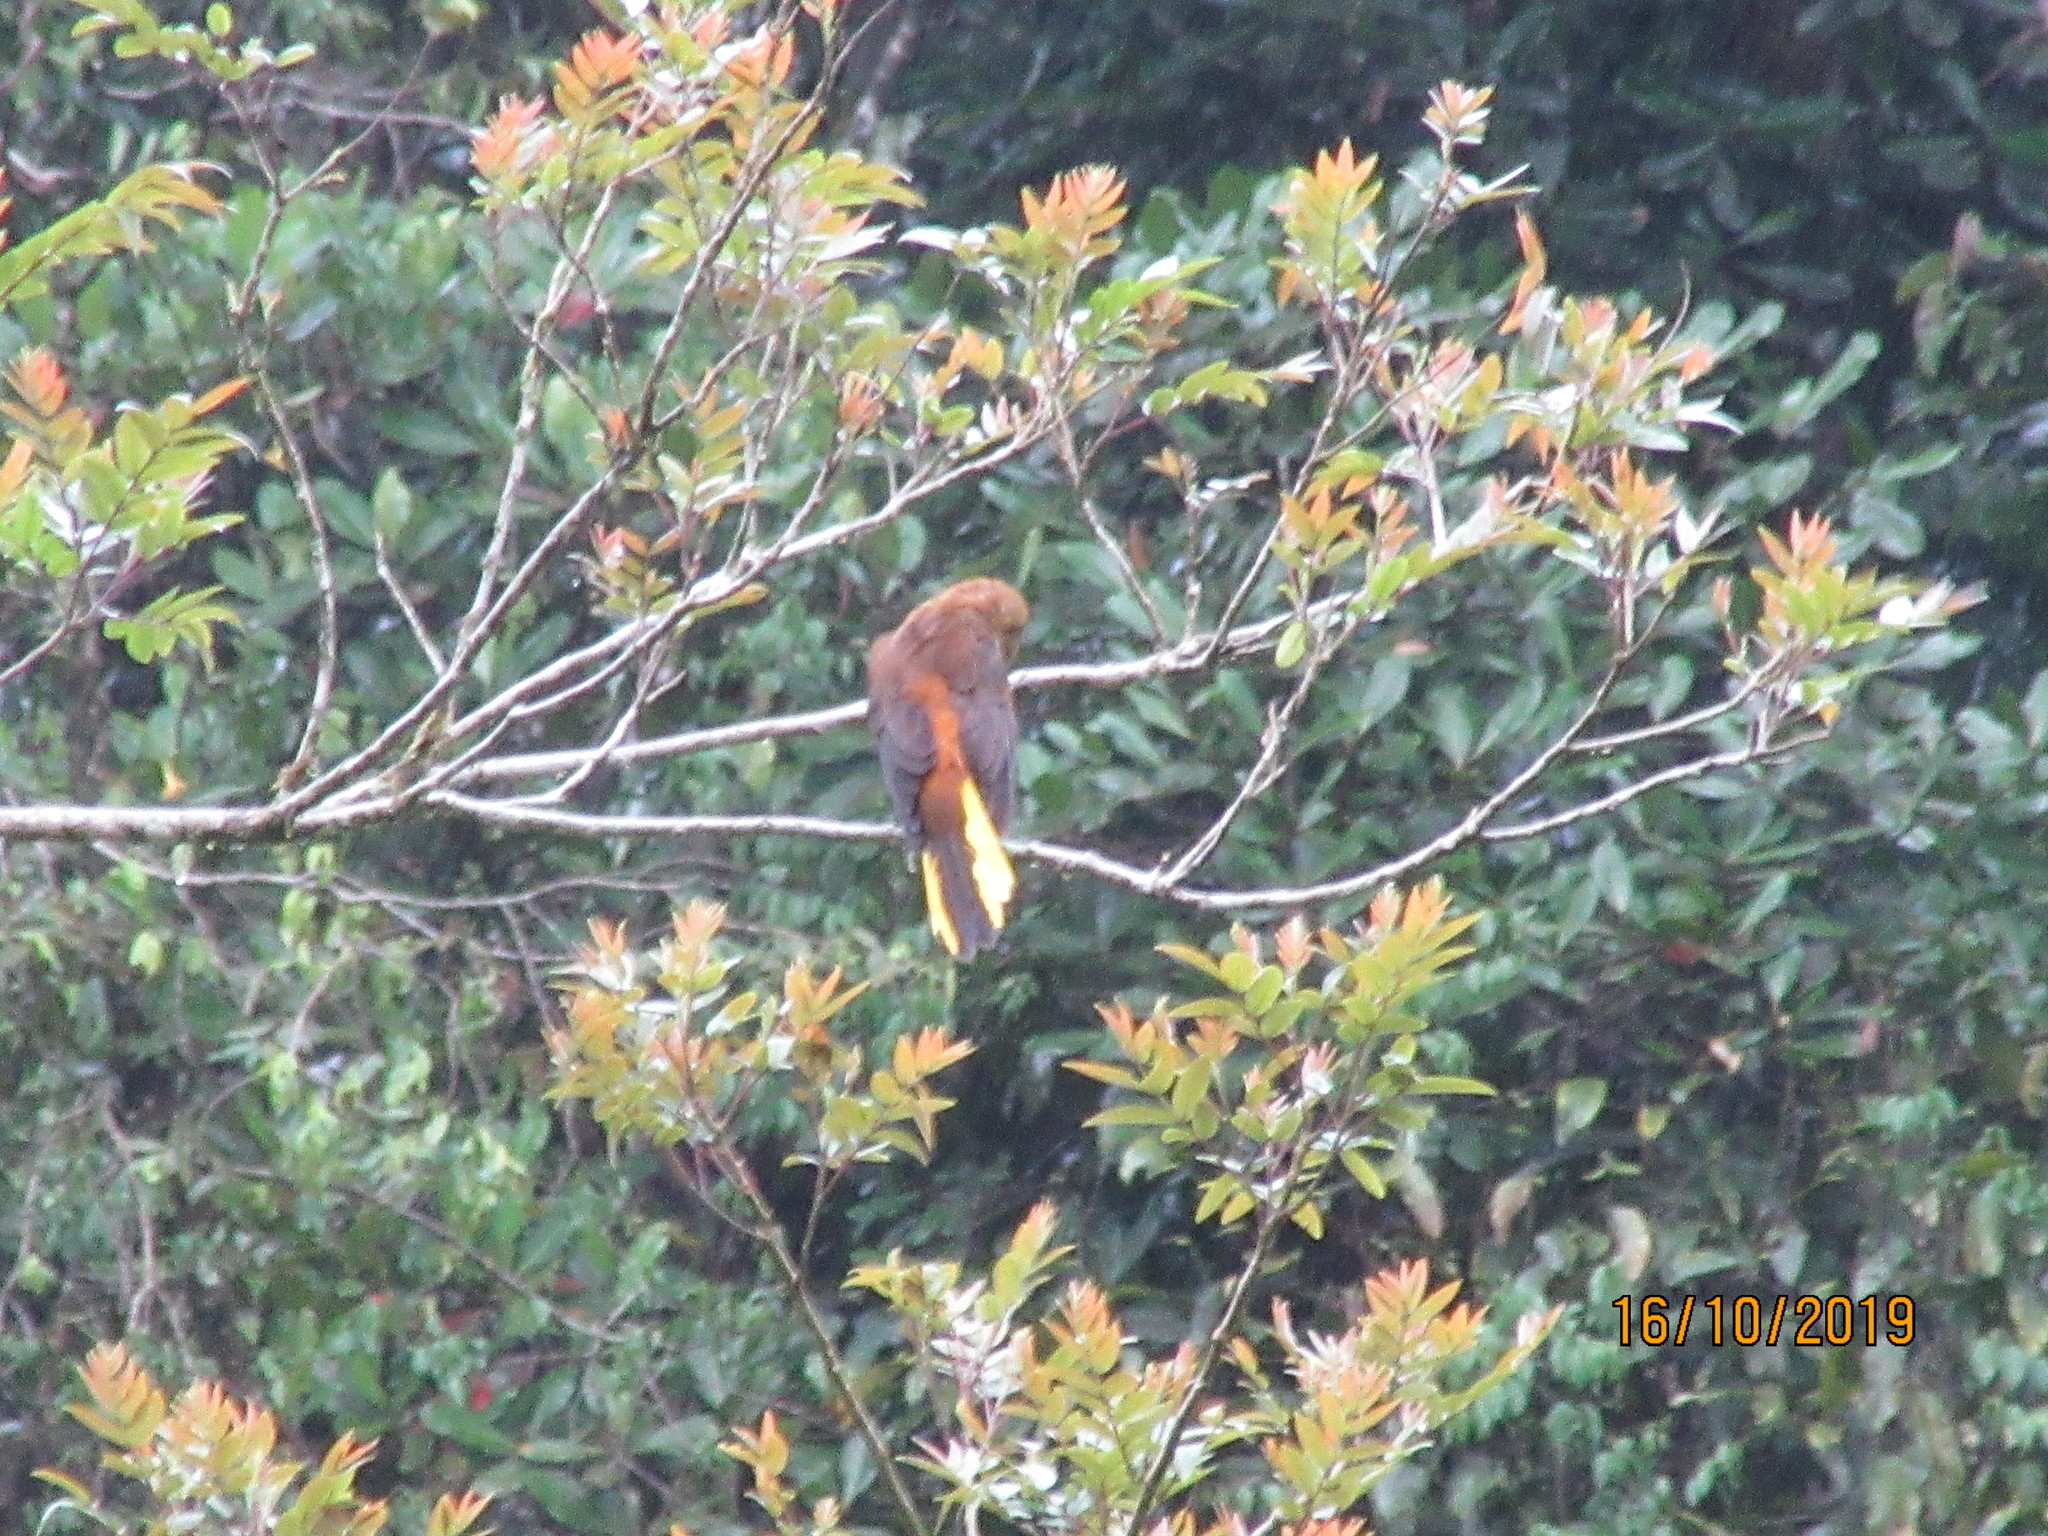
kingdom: Animalia
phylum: Chordata
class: Aves
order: Passeriformes
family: Icteridae
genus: Psarocolius
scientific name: Psarocolius angustifrons
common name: Russet-backed oropendola
